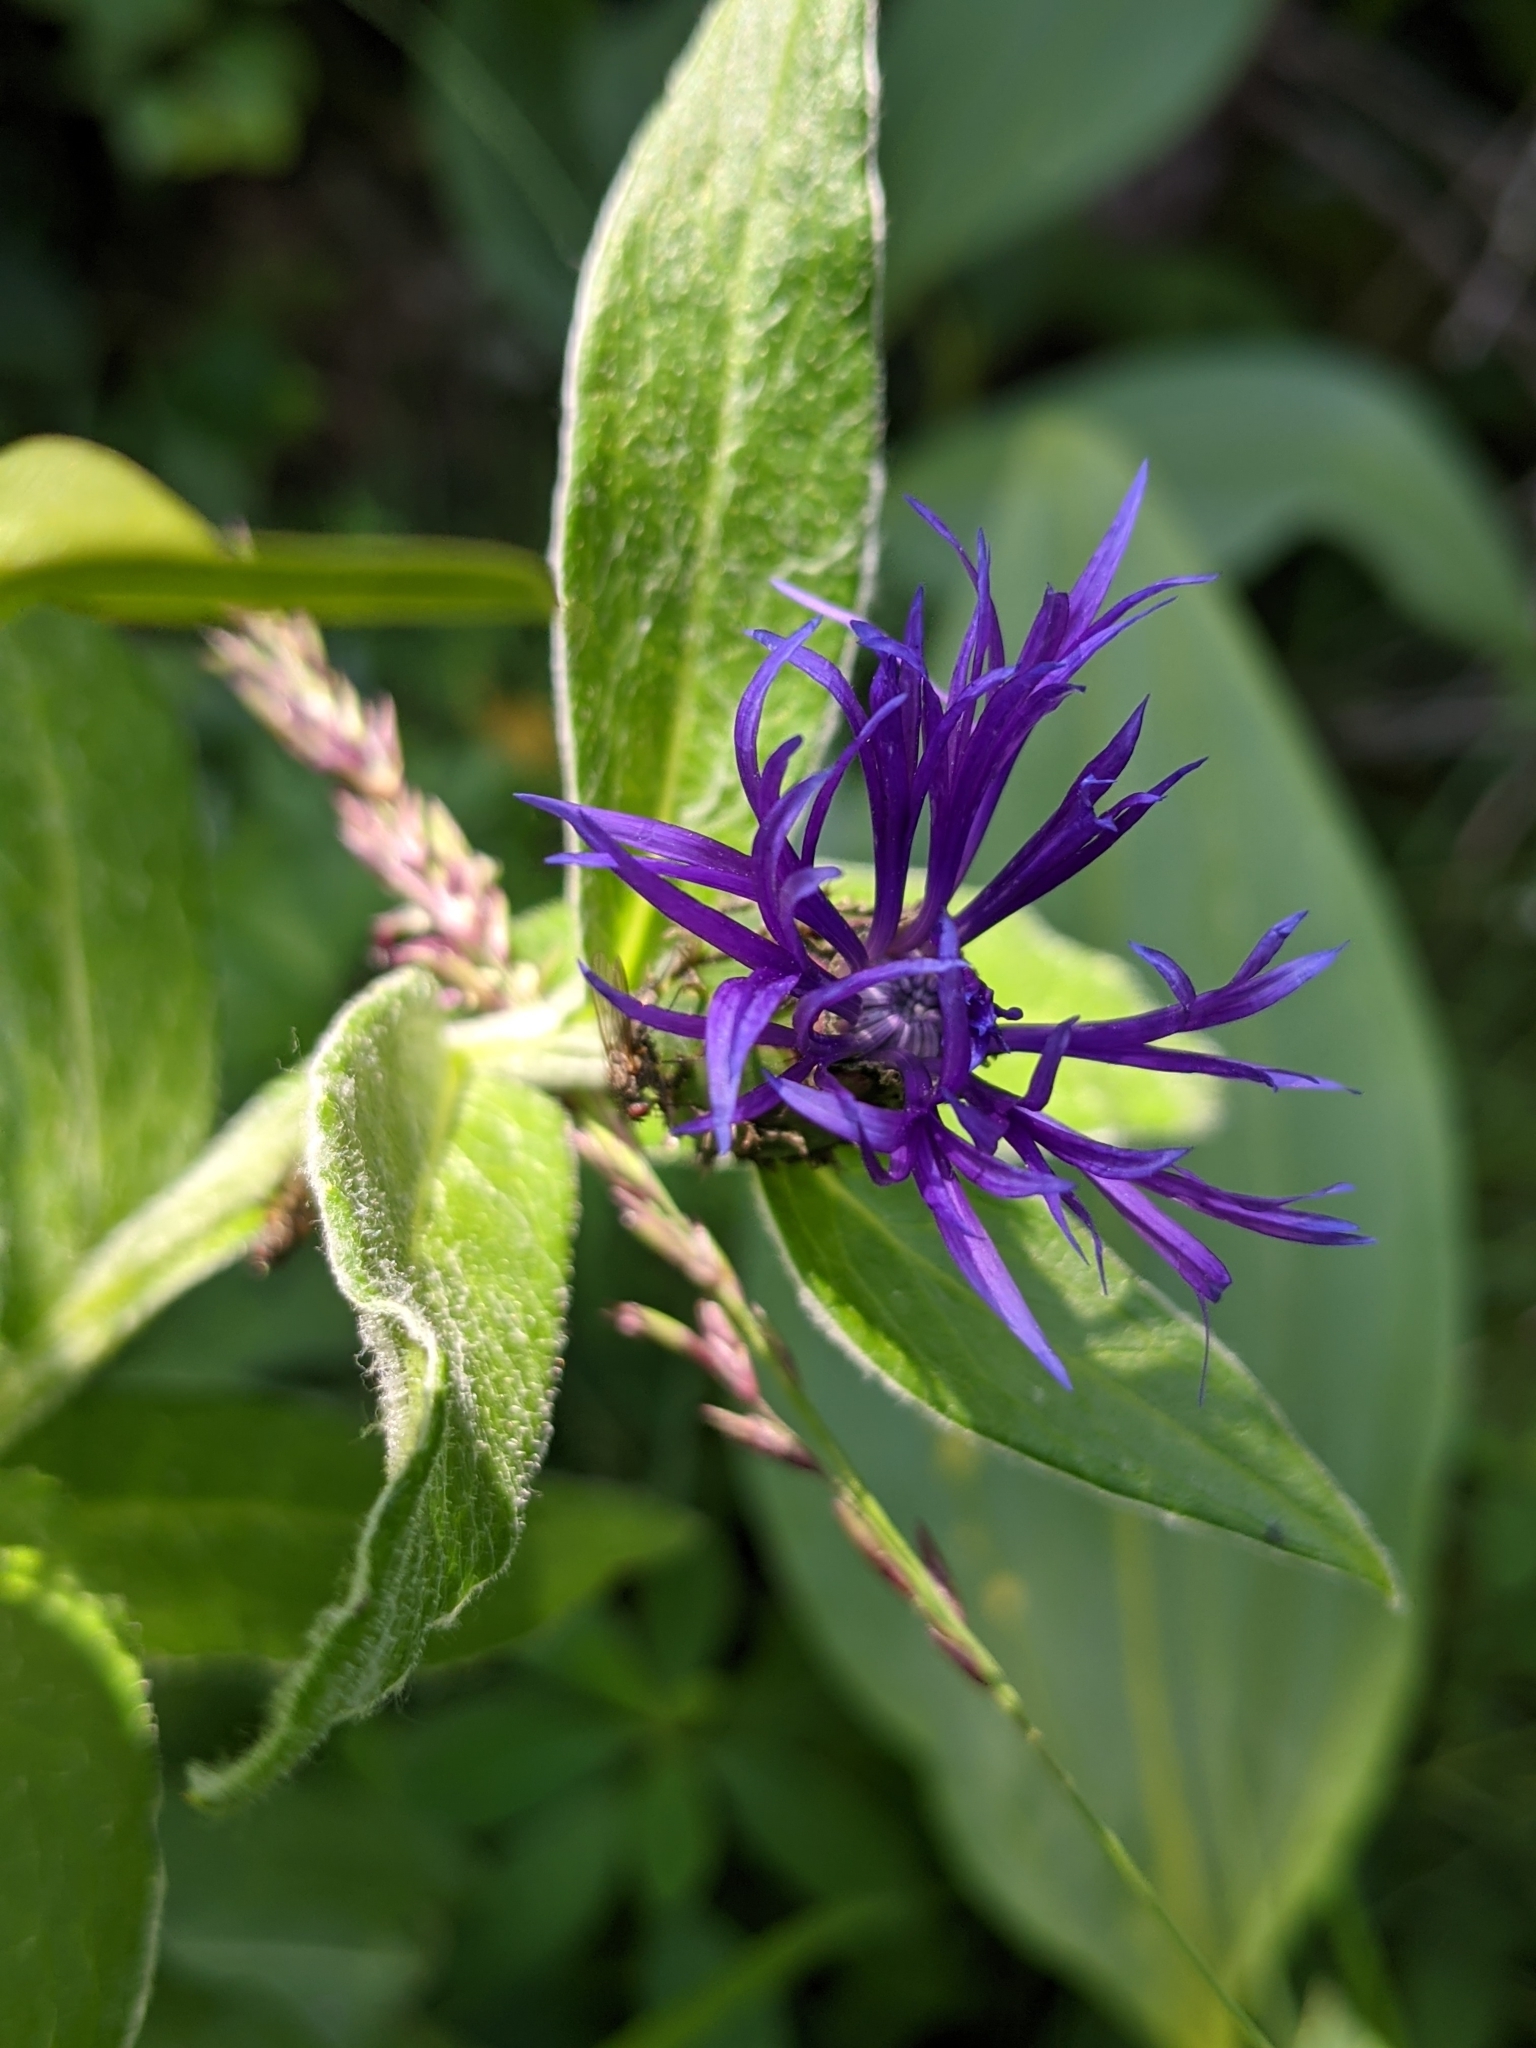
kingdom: Plantae
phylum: Tracheophyta
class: Magnoliopsida
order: Fabales
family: Fabaceae
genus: Trifolium
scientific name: Trifolium montanum
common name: Mountain clover
